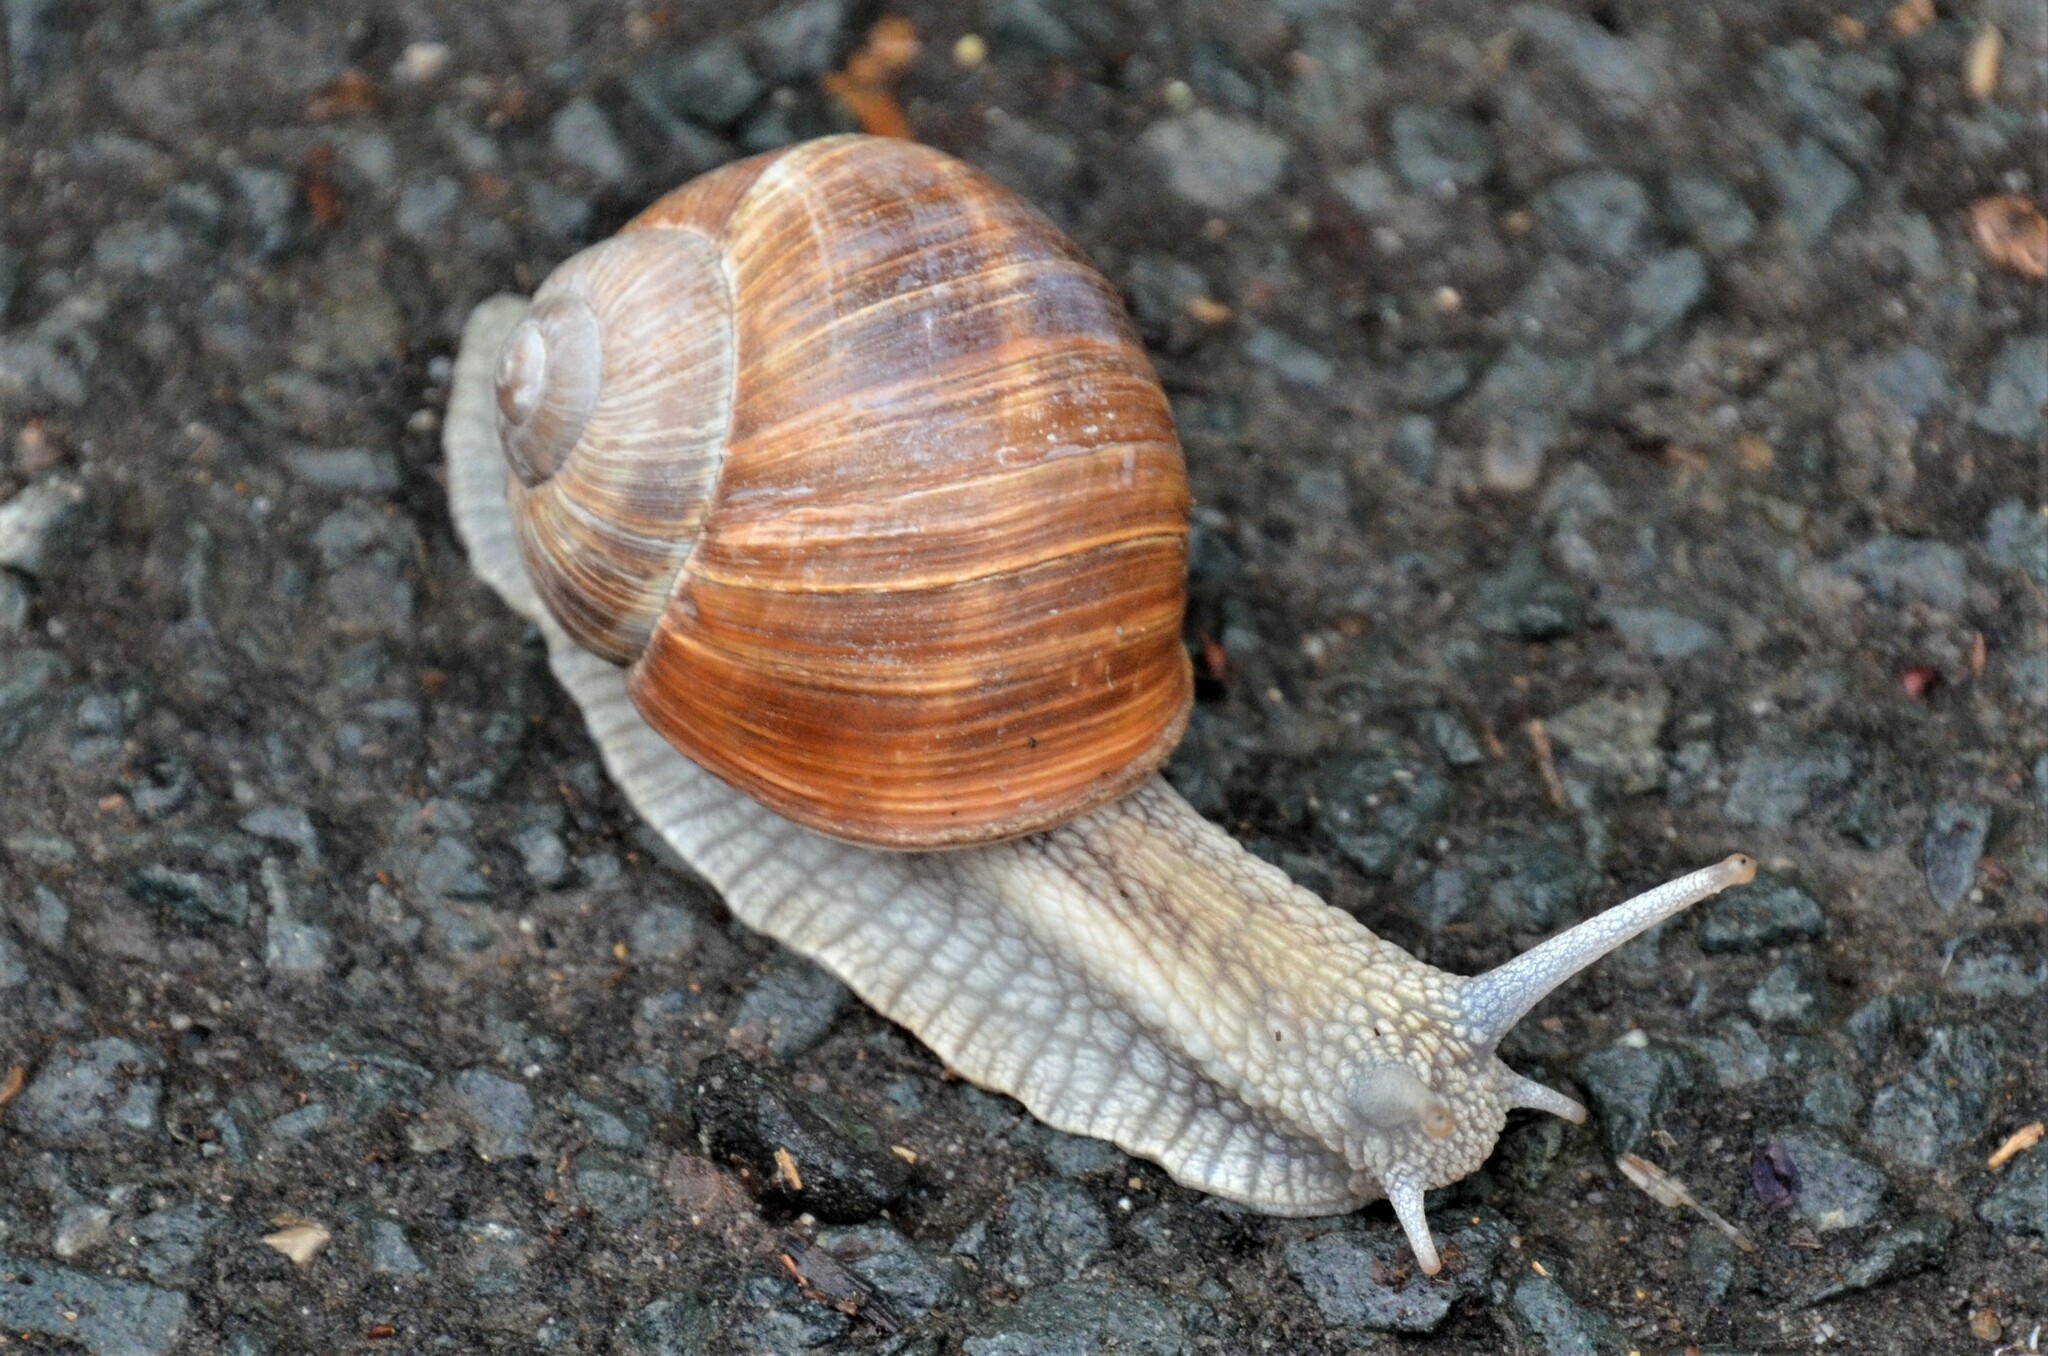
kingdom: Animalia
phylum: Mollusca
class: Gastropoda
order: Stylommatophora
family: Helicidae
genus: Helix
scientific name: Helix pomatia
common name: Roman snail
